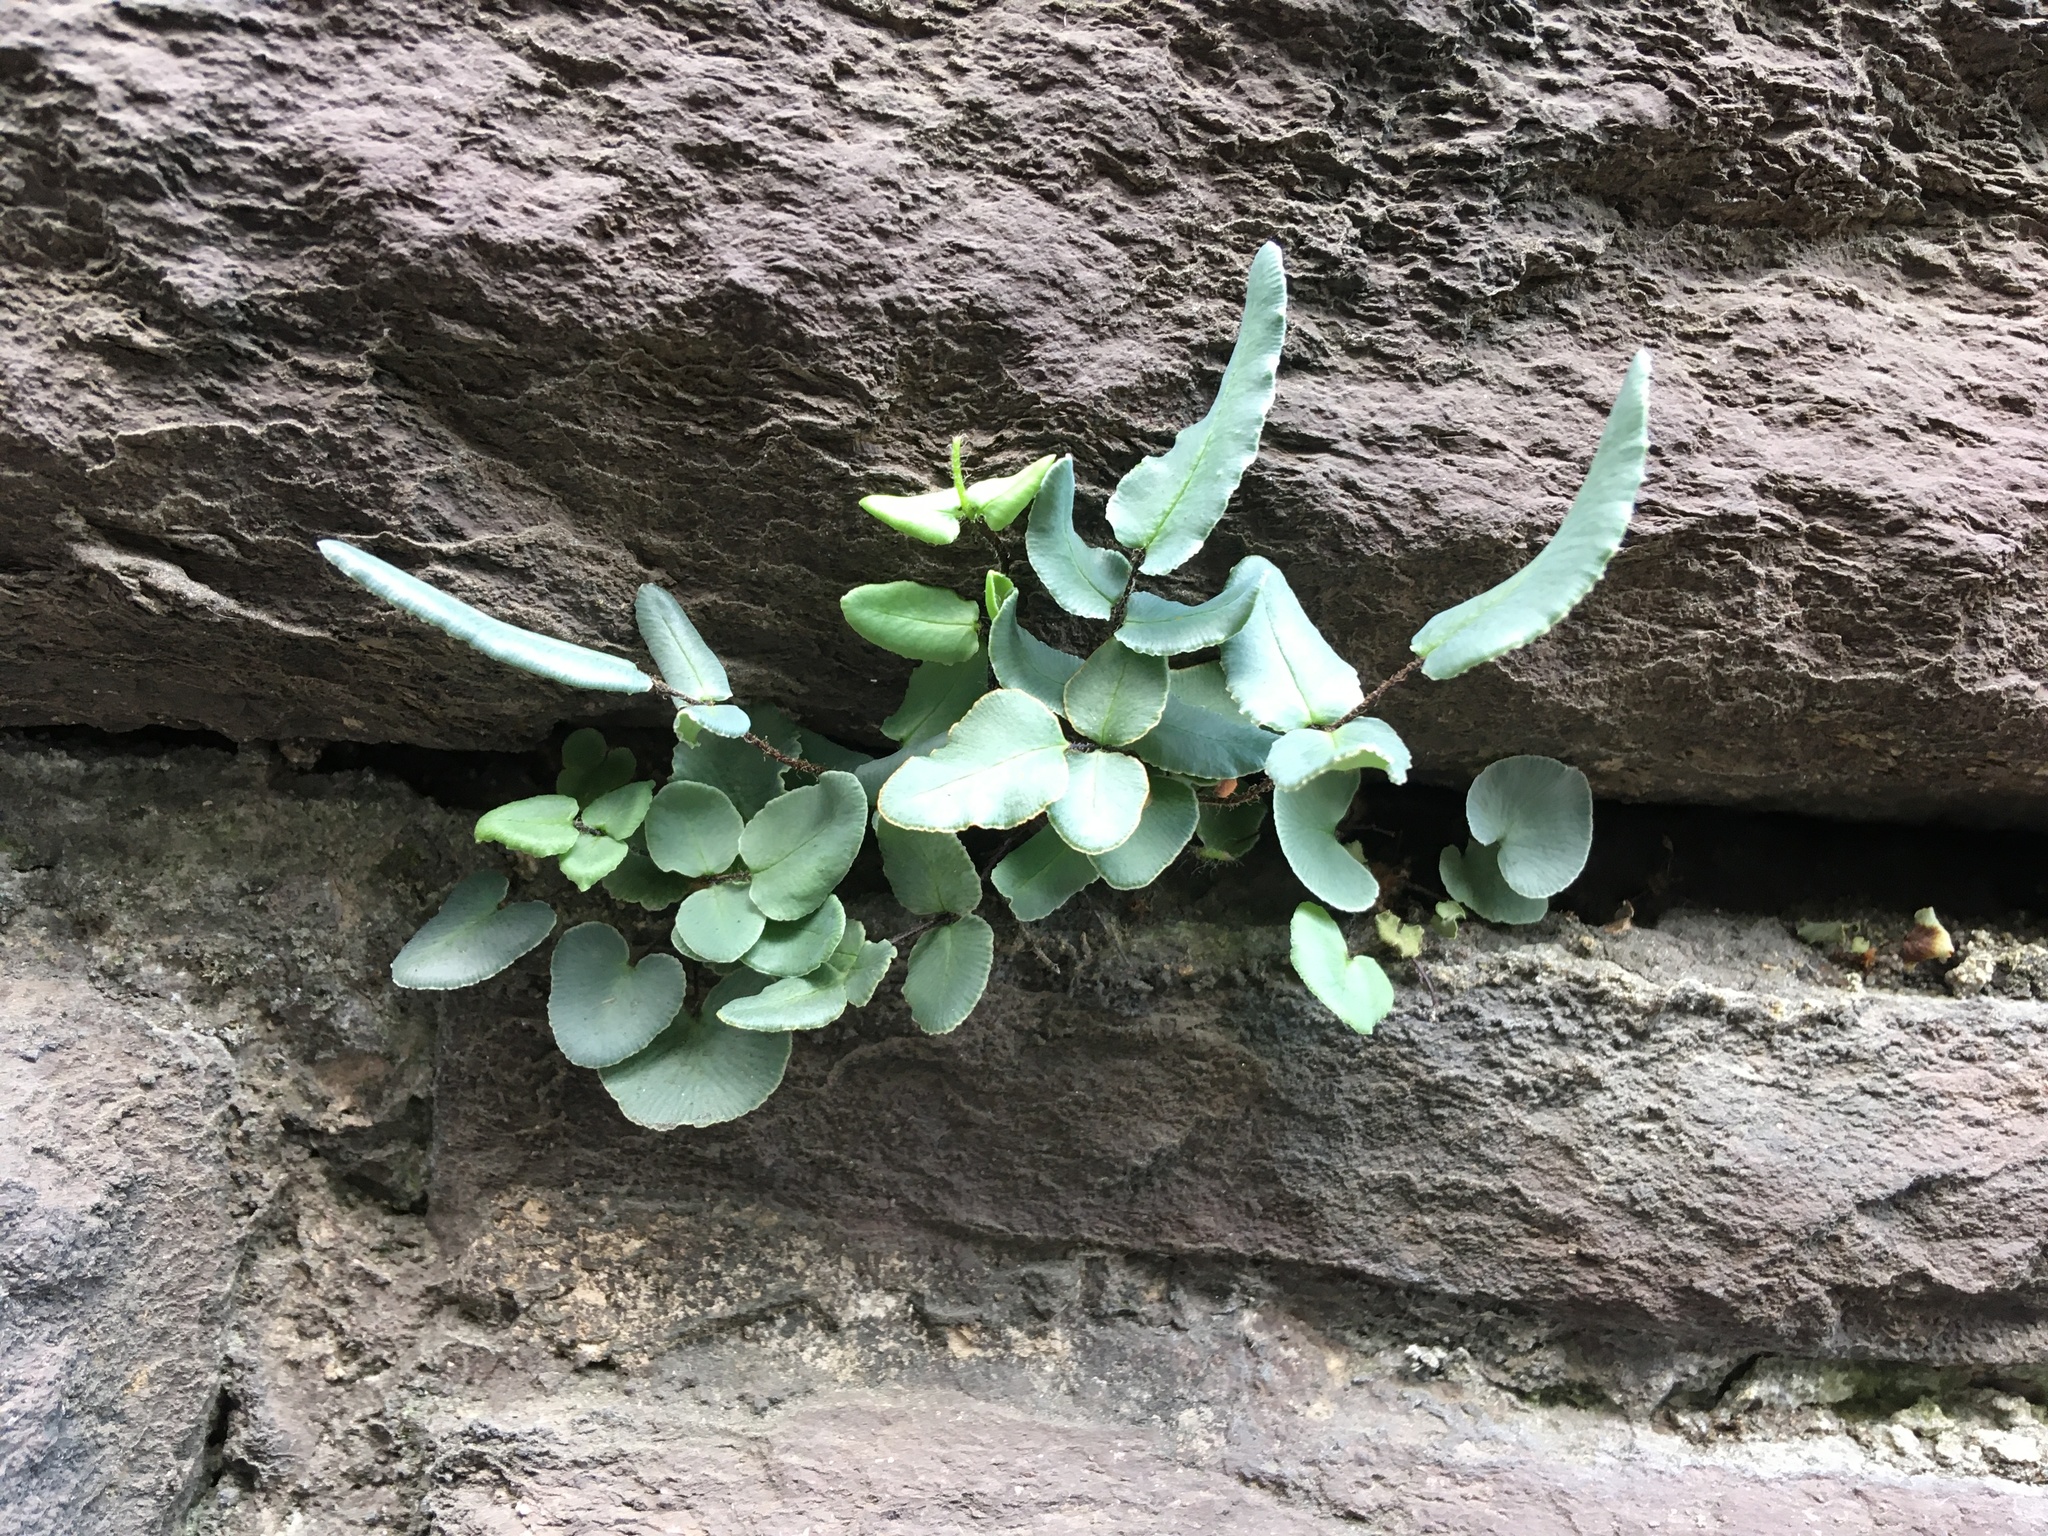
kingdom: Plantae
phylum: Tracheophyta
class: Polypodiopsida
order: Polypodiales
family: Pteridaceae
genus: Pellaea
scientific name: Pellaea atropurpurea
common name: Hairy cliffbrake
